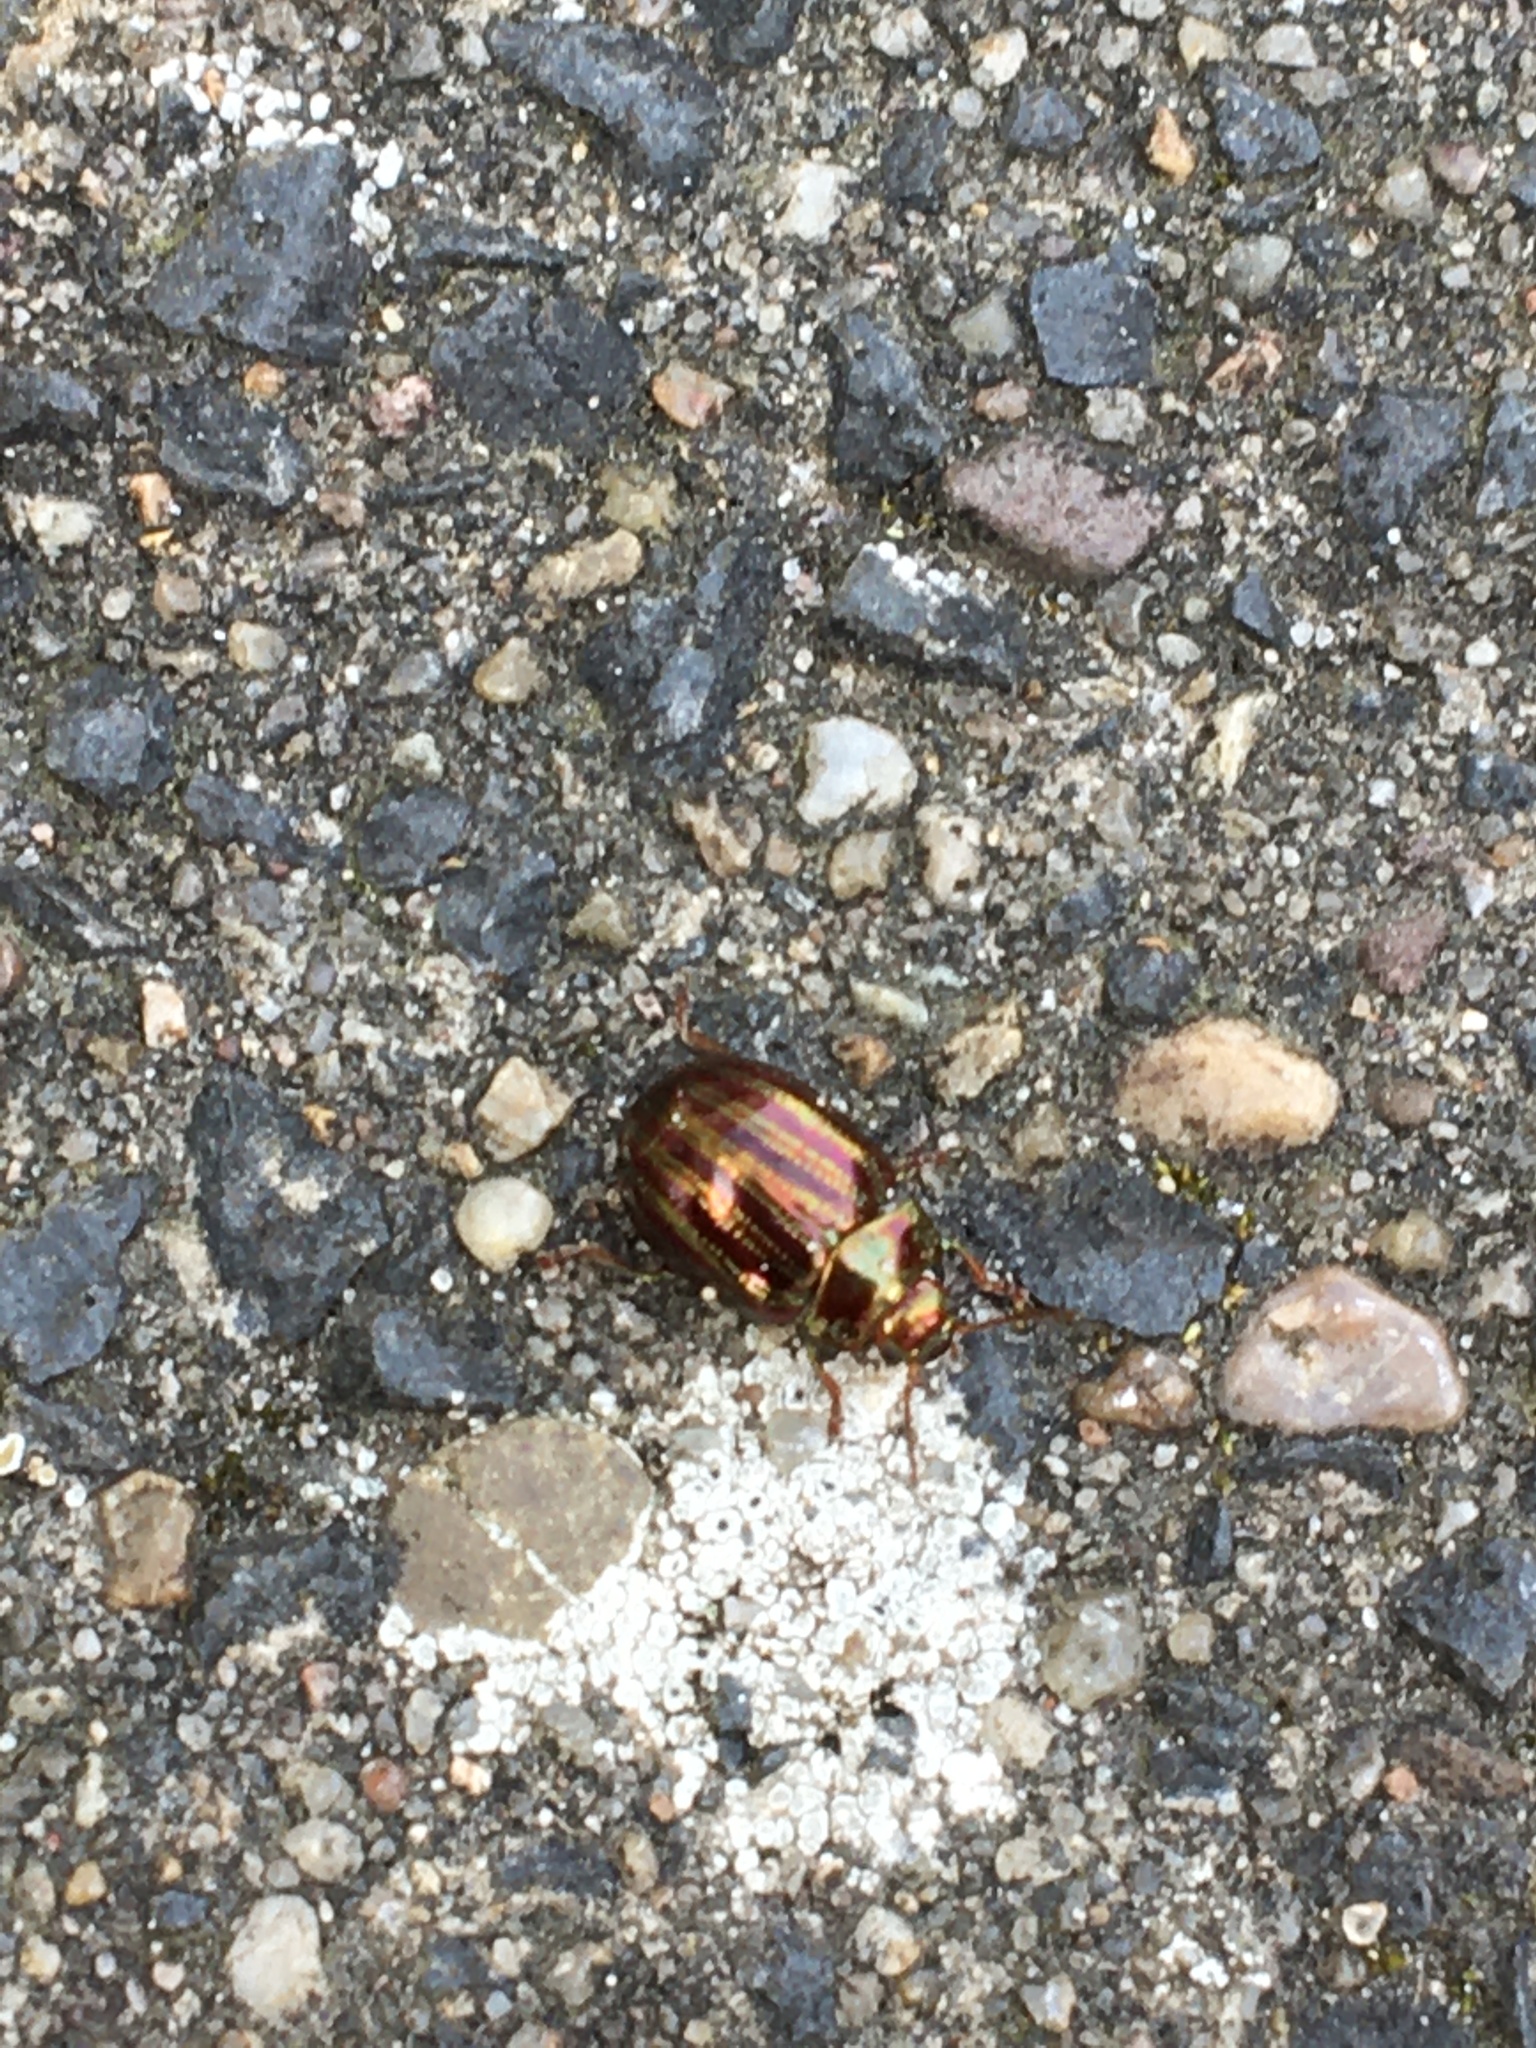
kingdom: Animalia
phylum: Arthropoda
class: Insecta
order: Coleoptera
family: Chrysomelidae
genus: Chrysolina
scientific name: Chrysolina americana
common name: Rosemary beetle
